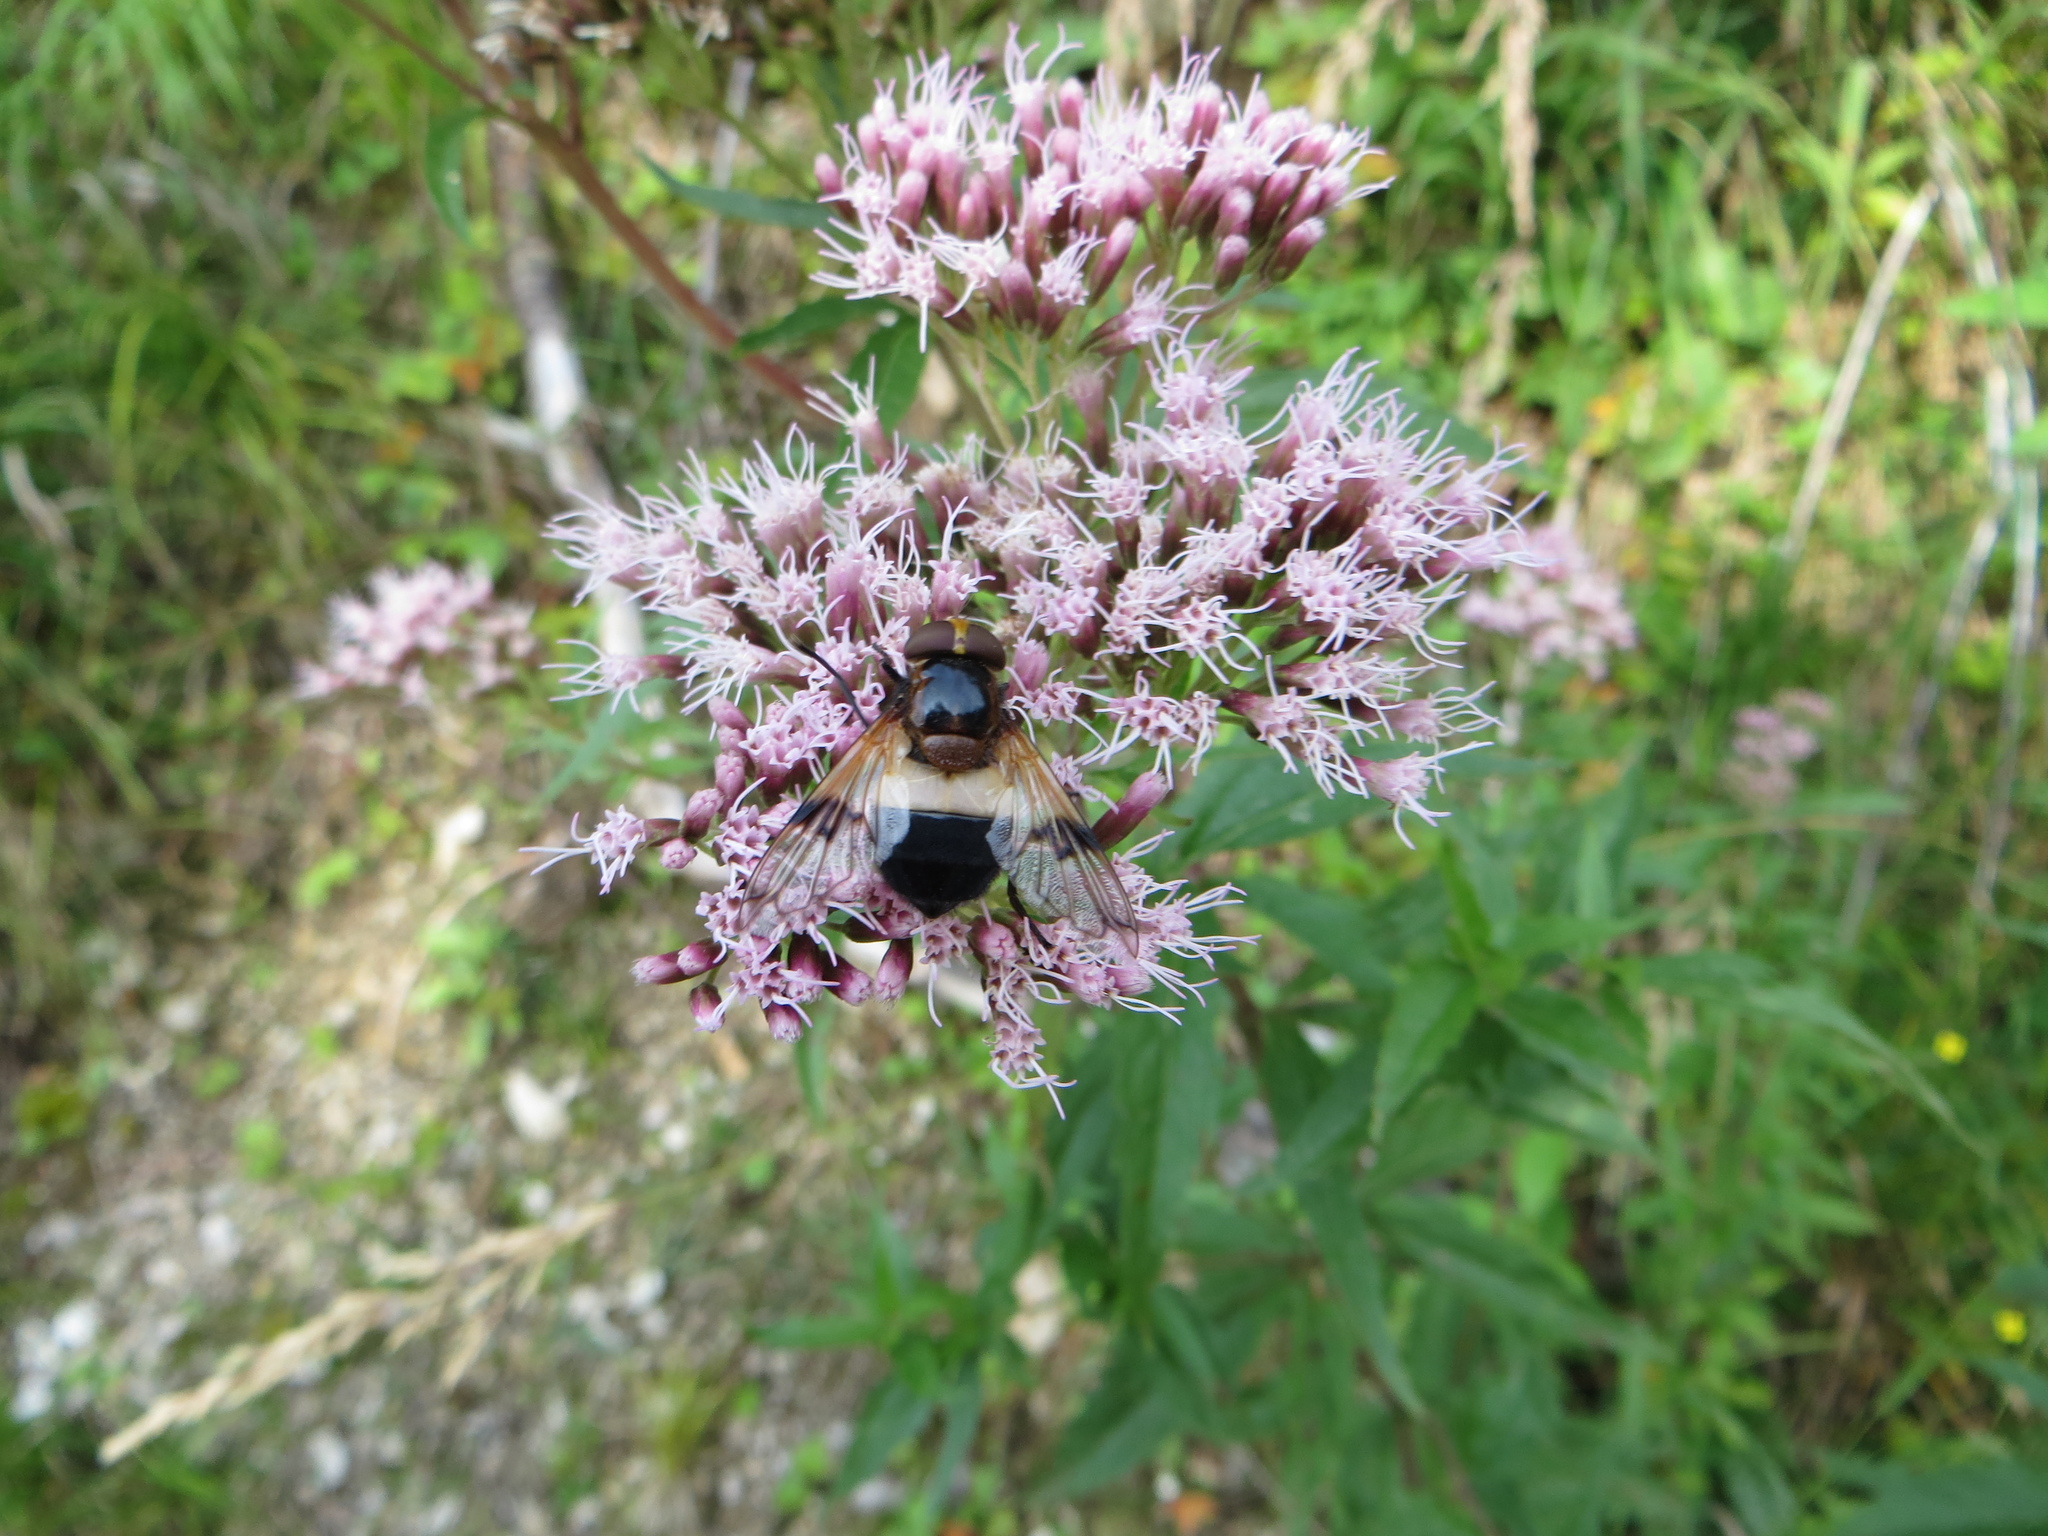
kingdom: Animalia
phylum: Arthropoda
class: Insecta
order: Diptera
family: Syrphidae
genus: Volucella
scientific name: Volucella pellucens
